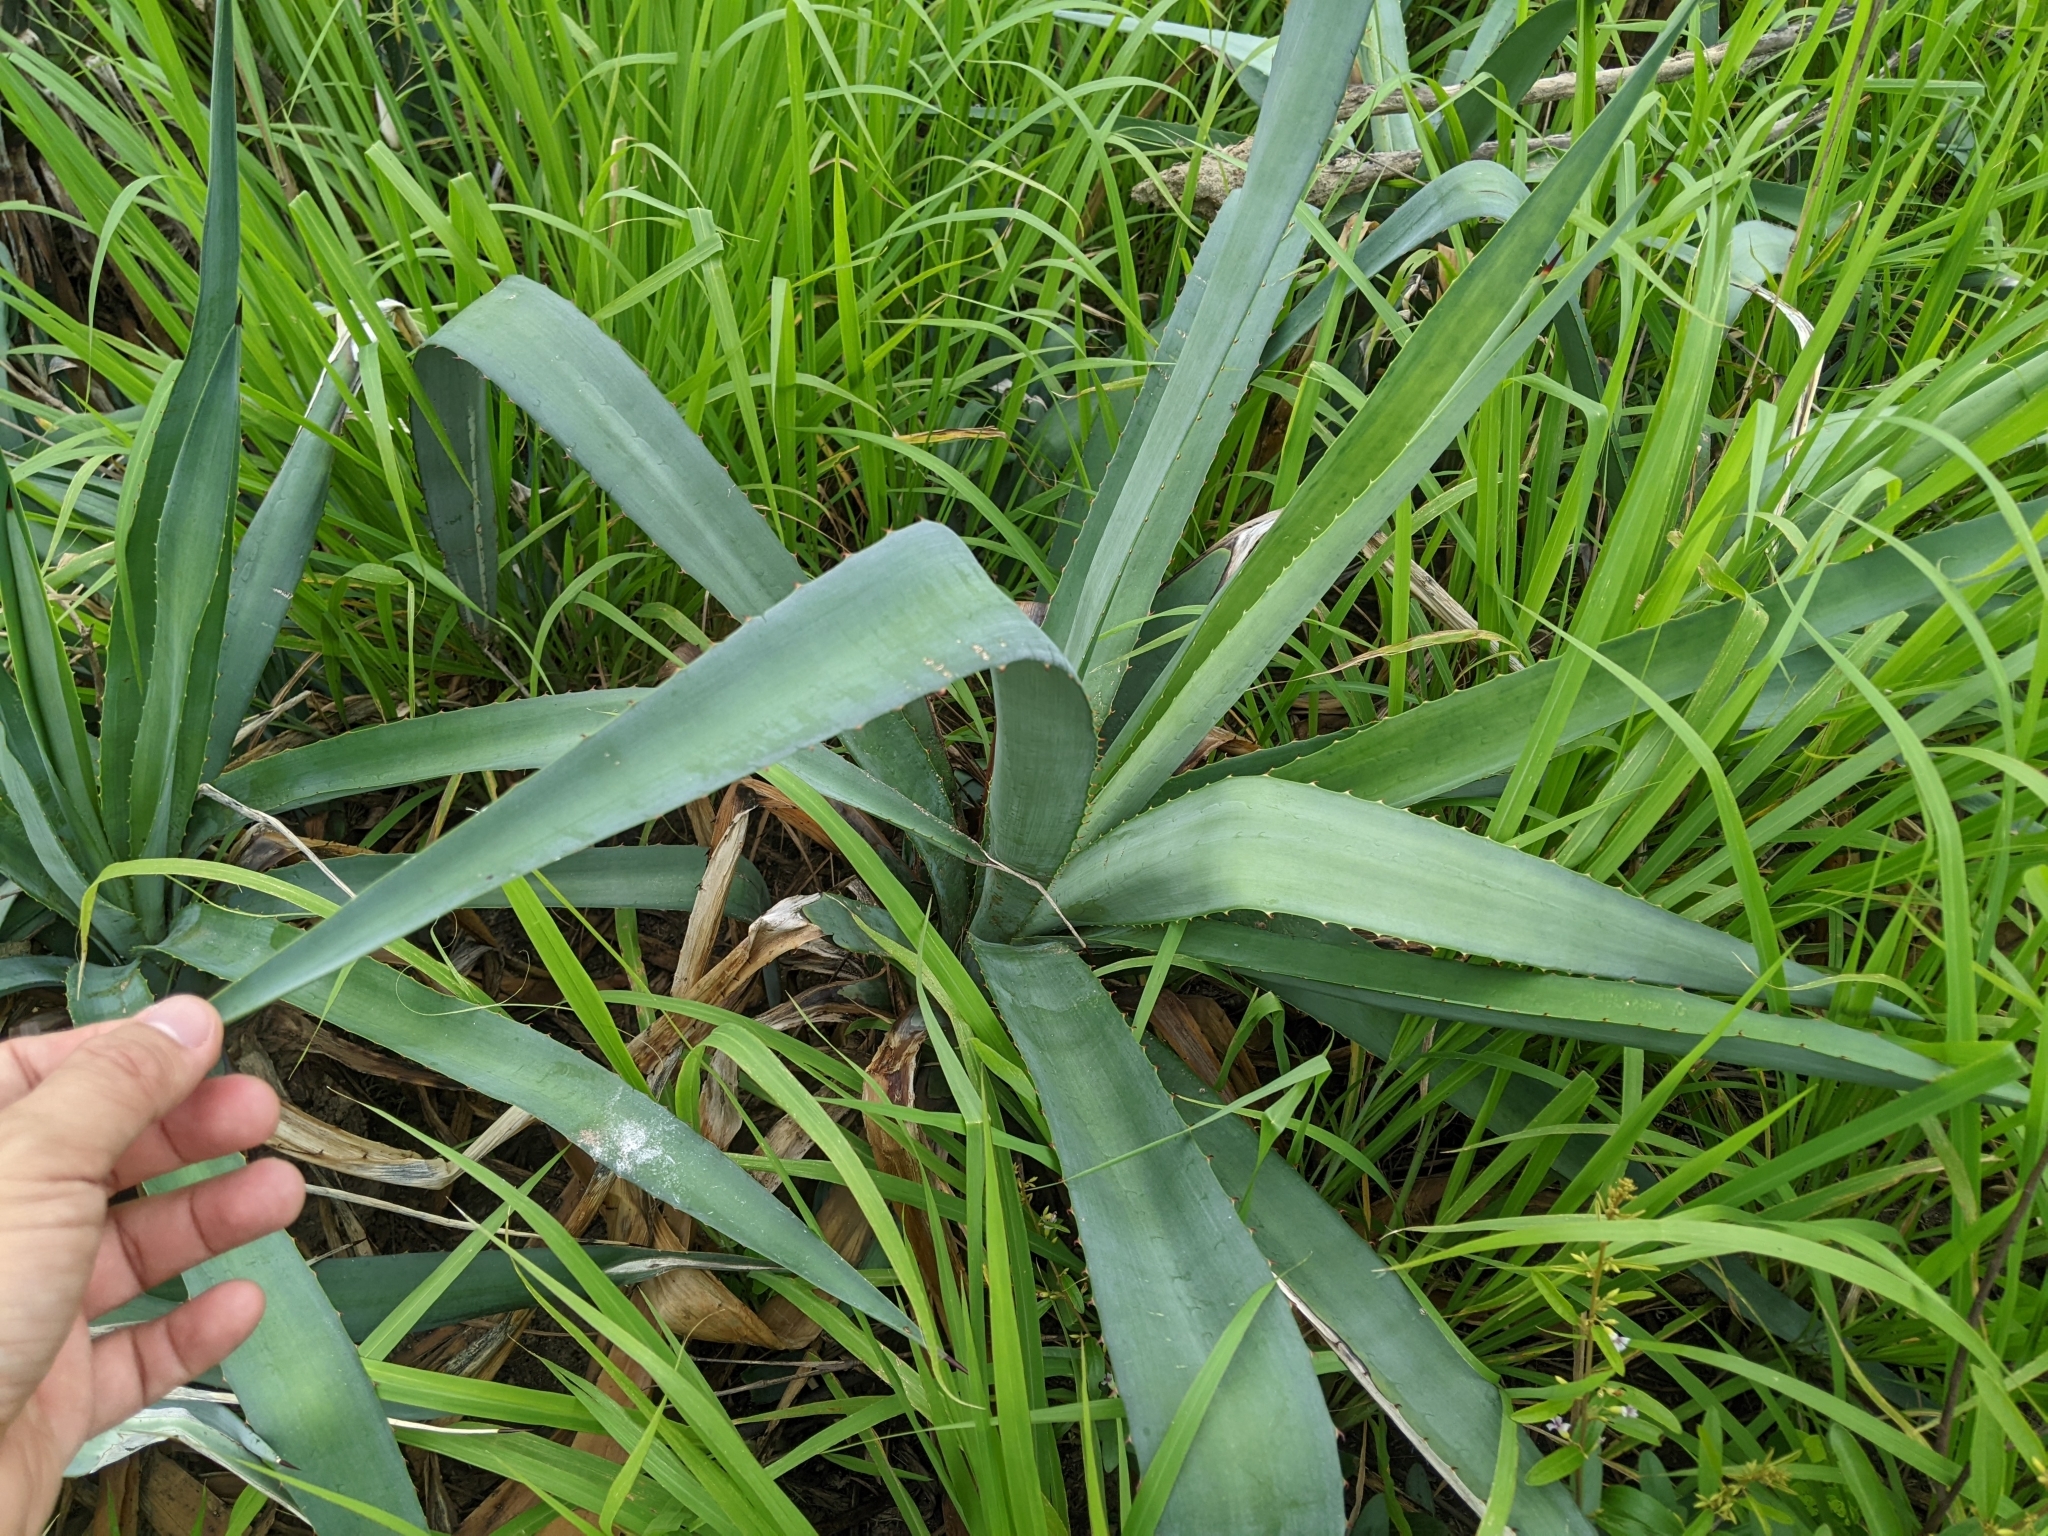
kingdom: Plantae
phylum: Tracheophyta
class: Liliopsida
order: Asparagales
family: Asparagaceae
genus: Agave
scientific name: Agave sisalana
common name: Sisal hemp
